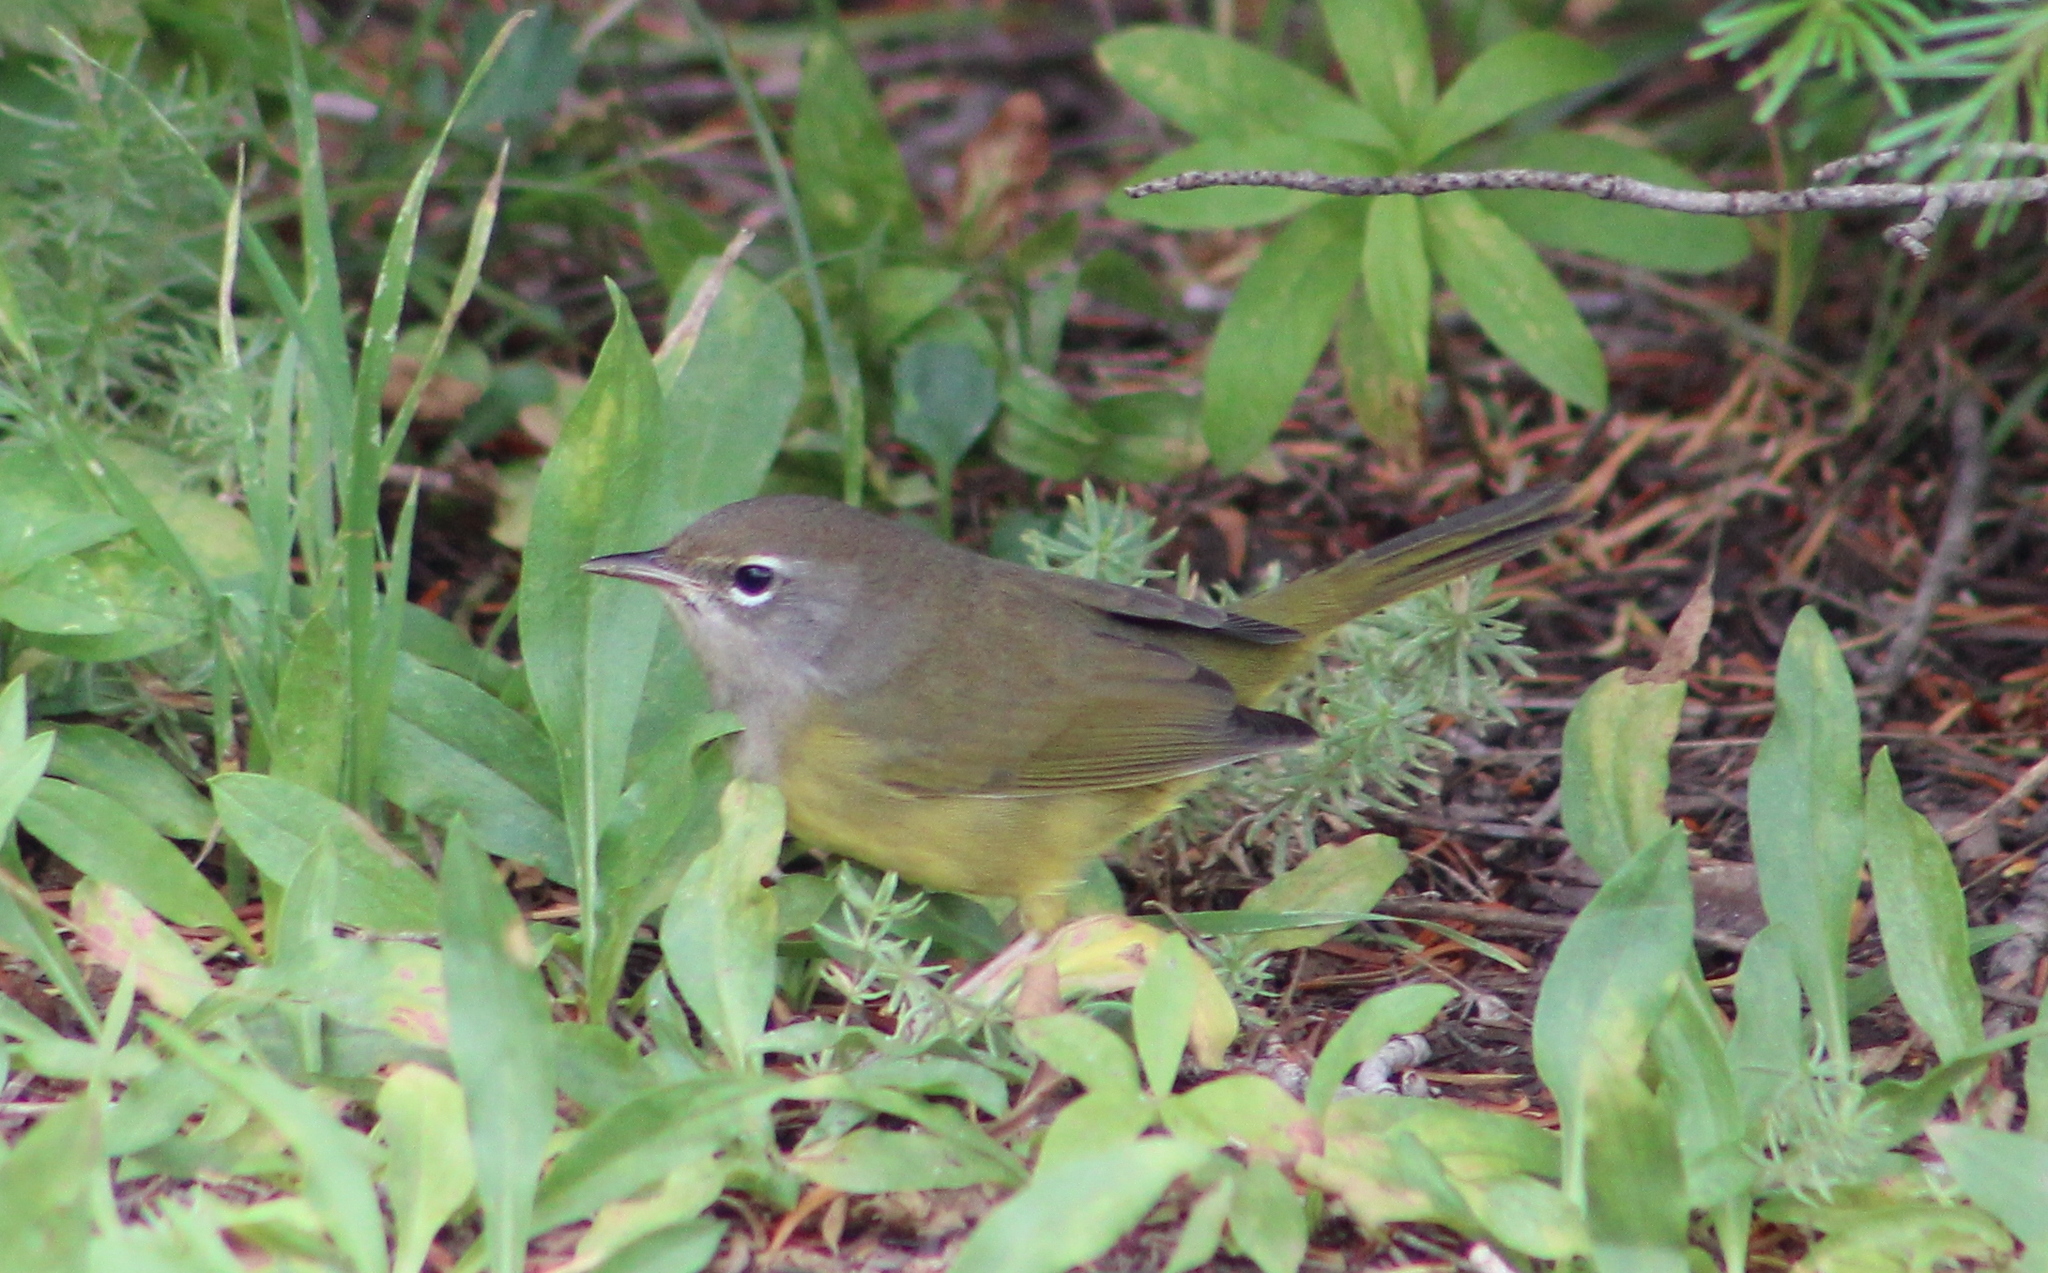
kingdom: Animalia
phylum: Chordata
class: Aves
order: Passeriformes
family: Parulidae
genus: Geothlypis
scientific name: Geothlypis tolmiei
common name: Macgillivray's warbler
